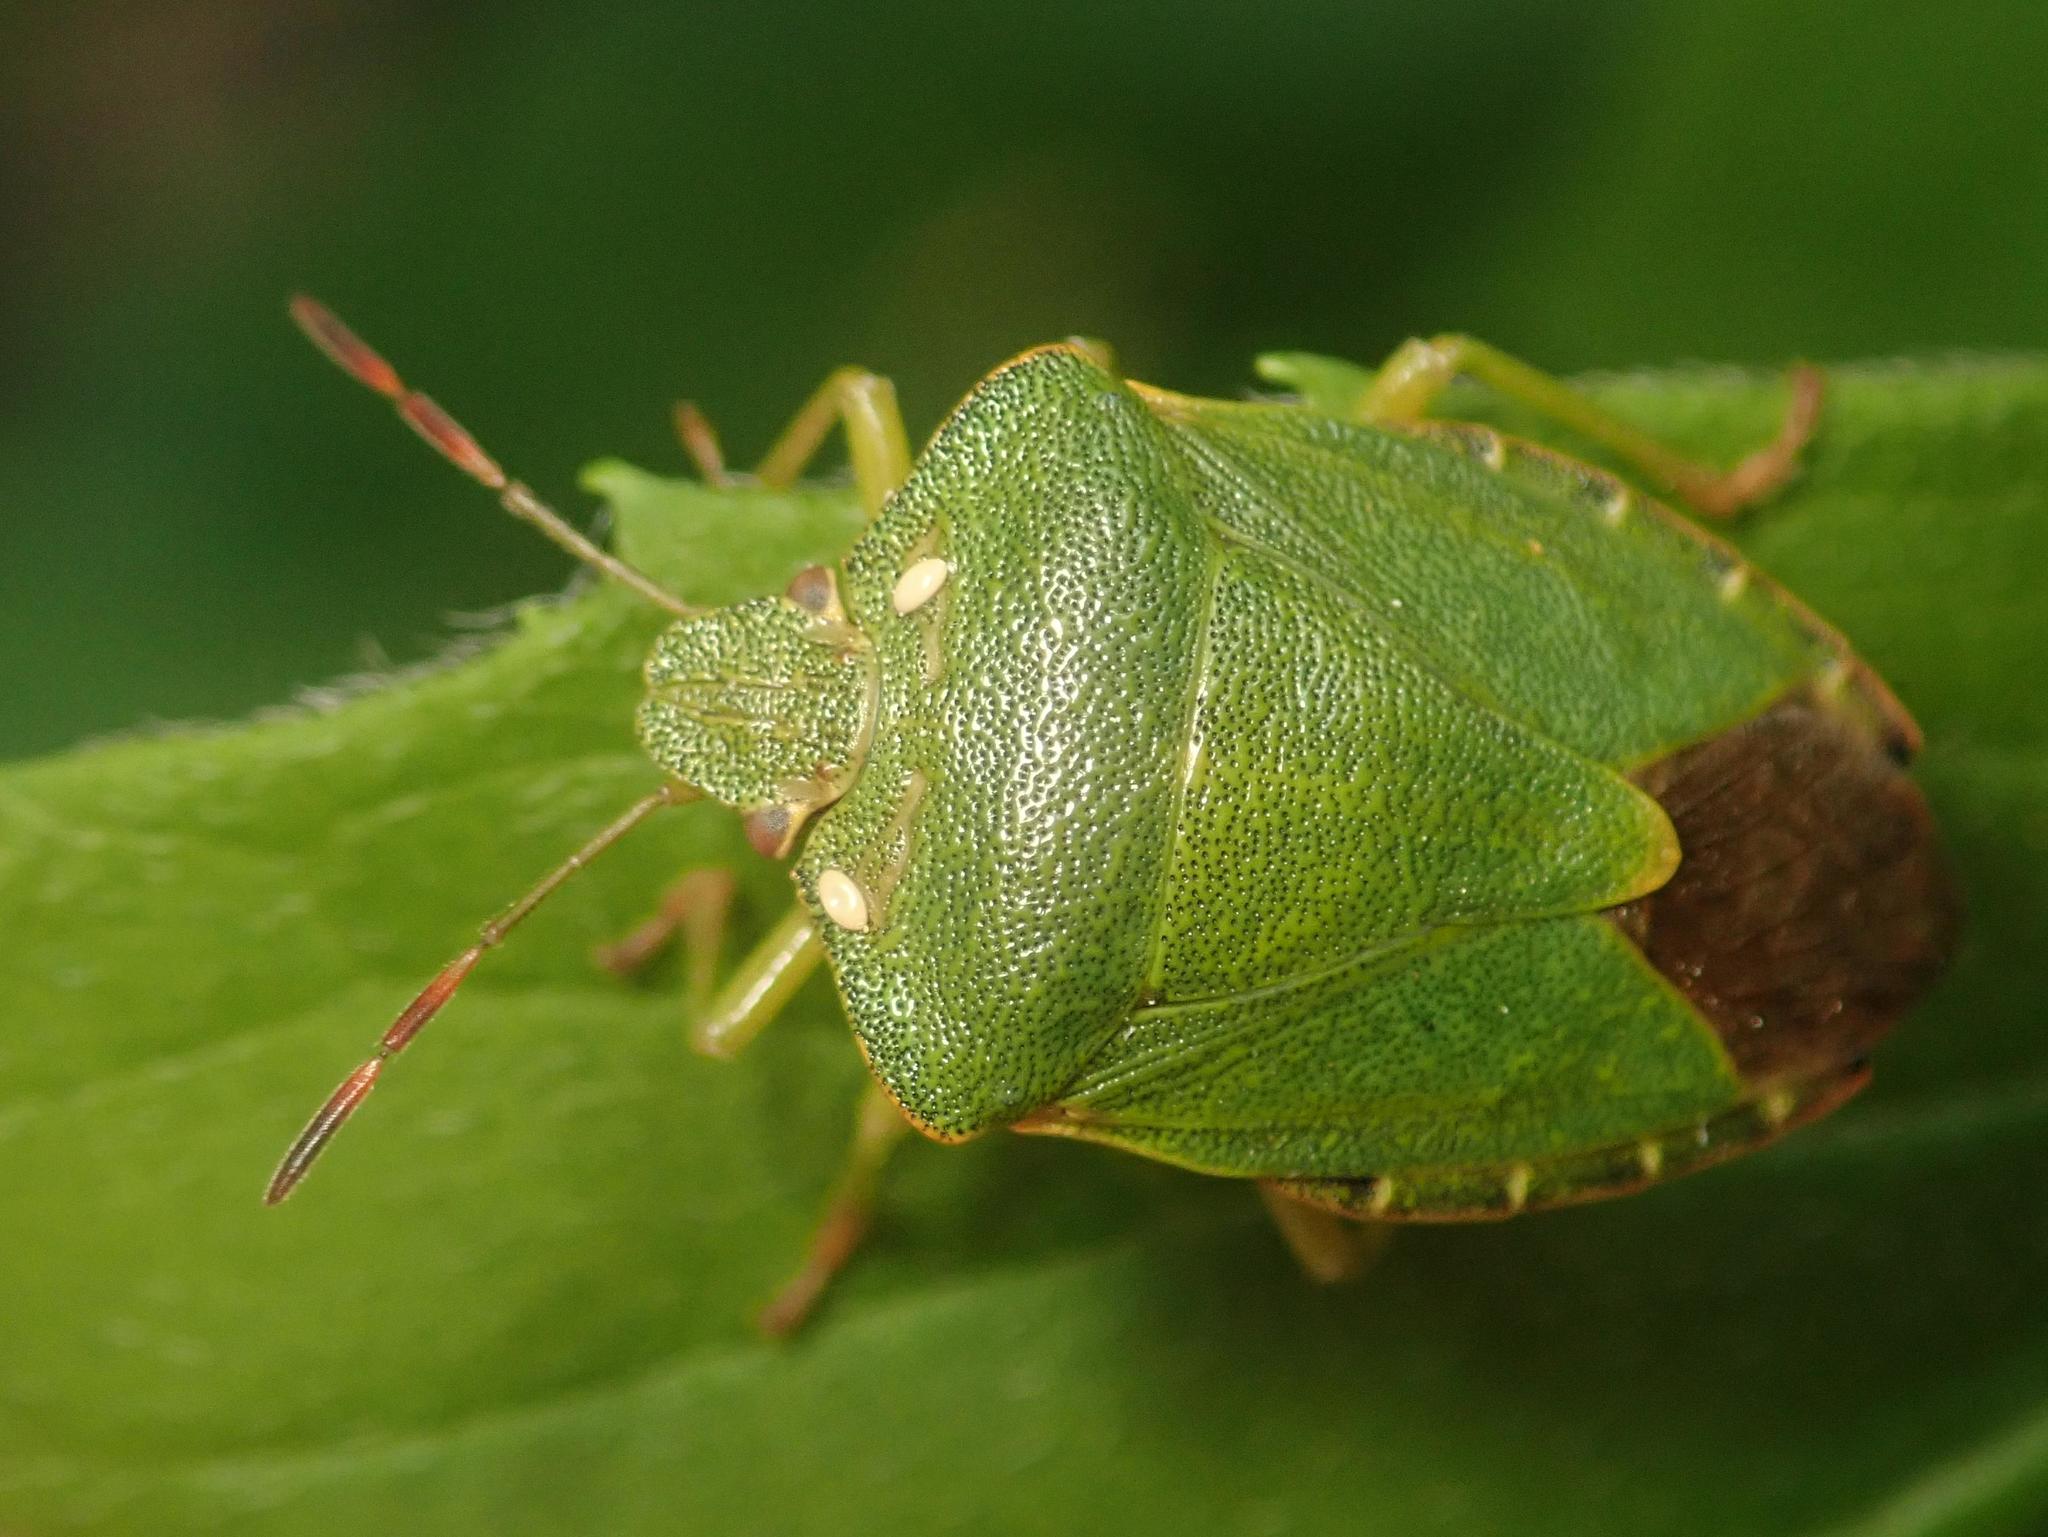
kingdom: Animalia
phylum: Arthropoda
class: Insecta
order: Hemiptera
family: Pentatomidae
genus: Palomena
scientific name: Palomena prasina
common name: Green shieldbug
